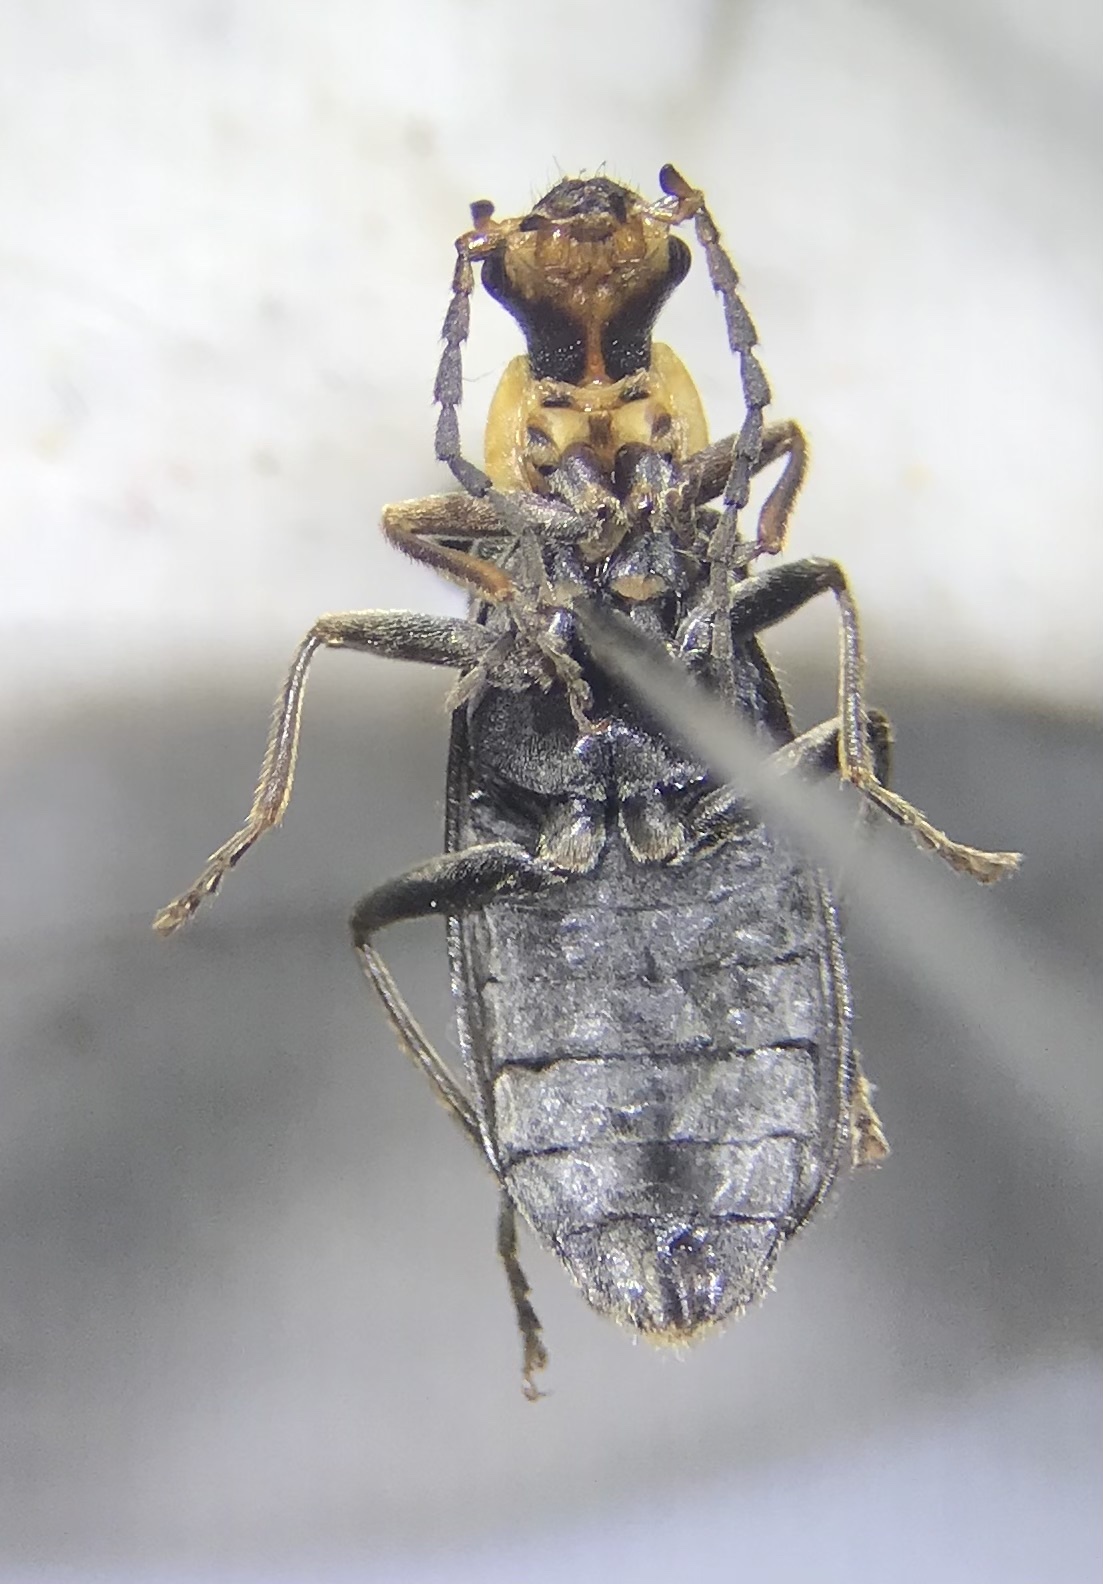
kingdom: Animalia
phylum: Arthropoda
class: Insecta
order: Coleoptera
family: Cantharidae
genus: Podabrus
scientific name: Podabrus rugosulus
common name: Wrinkled soldier beetle
